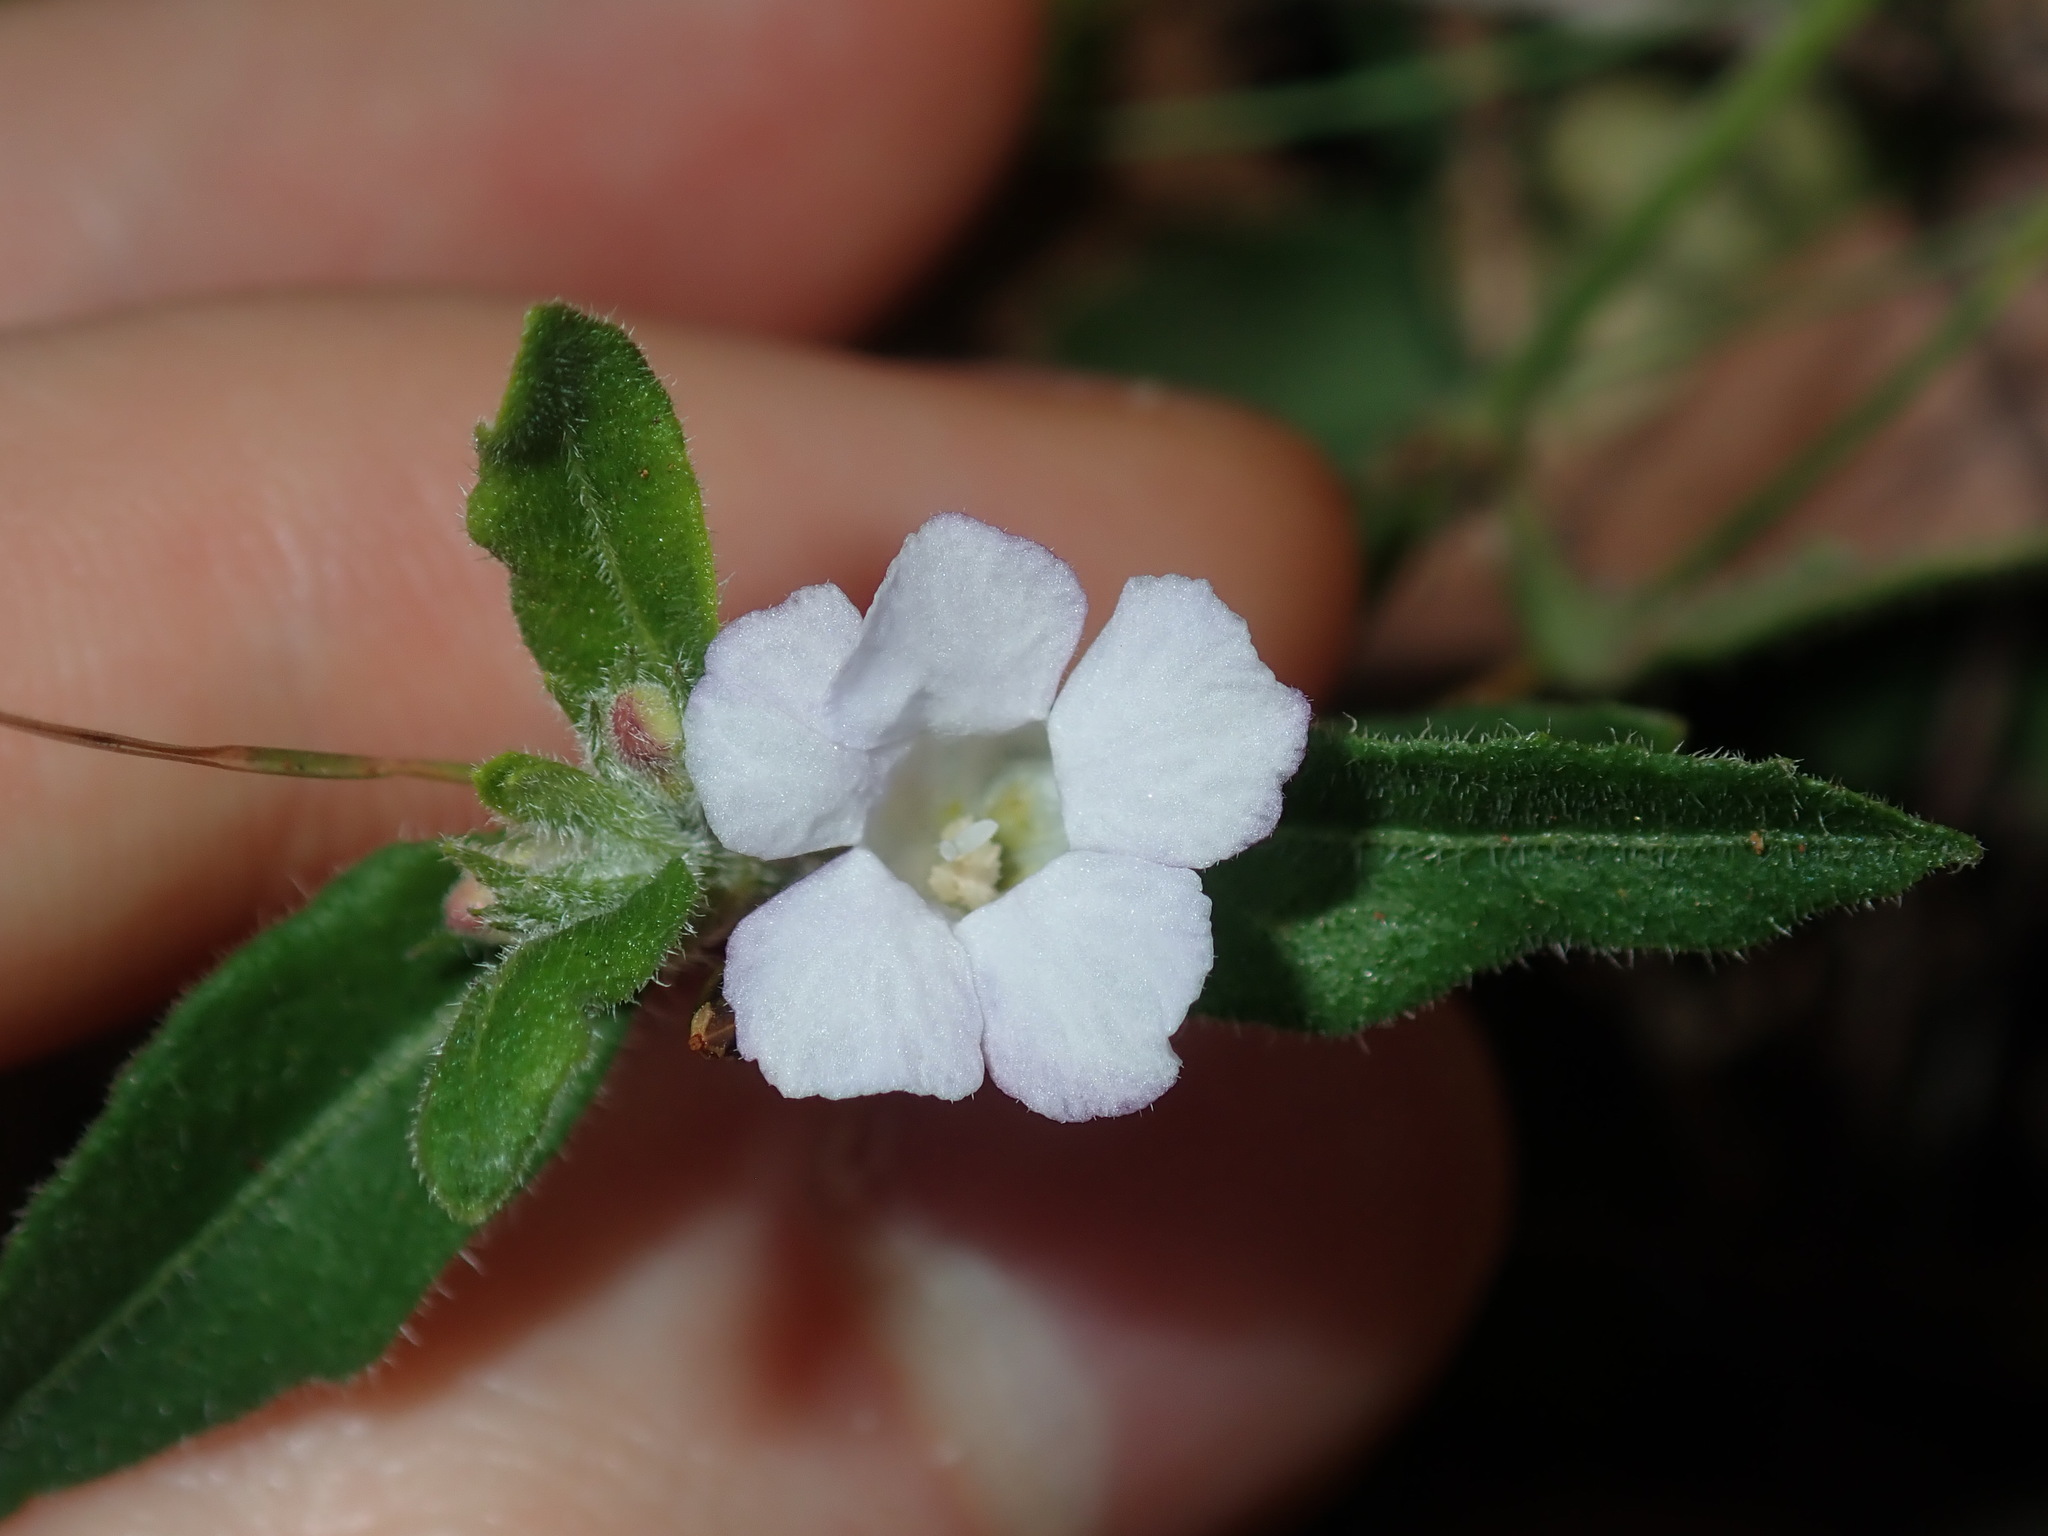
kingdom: Plantae
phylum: Tracheophyta
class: Magnoliopsida
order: Lamiales
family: Acanthaceae
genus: Brunoniella
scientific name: Brunoniella australis
